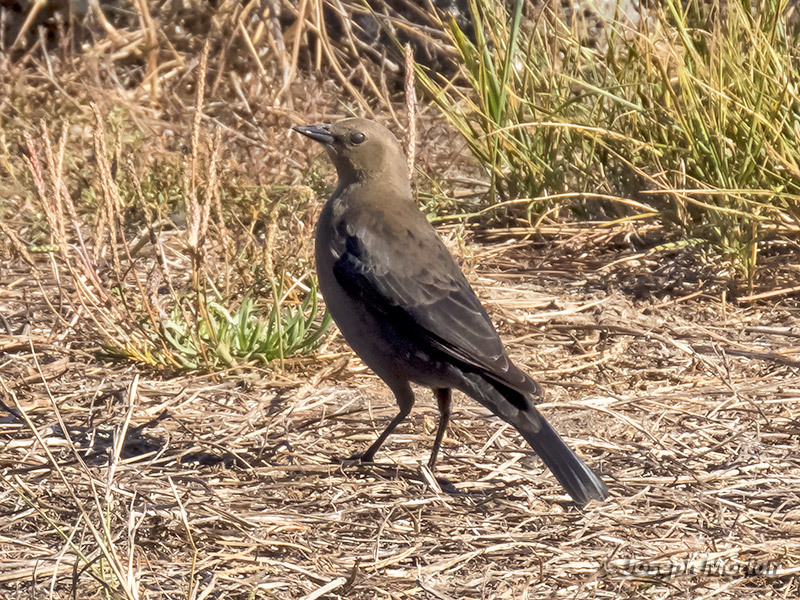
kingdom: Animalia
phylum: Chordata
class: Aves
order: Passeriformes
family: Icteridae
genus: Euphagus
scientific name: Euphagus cyanocephalus
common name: Brewer's blackbird
